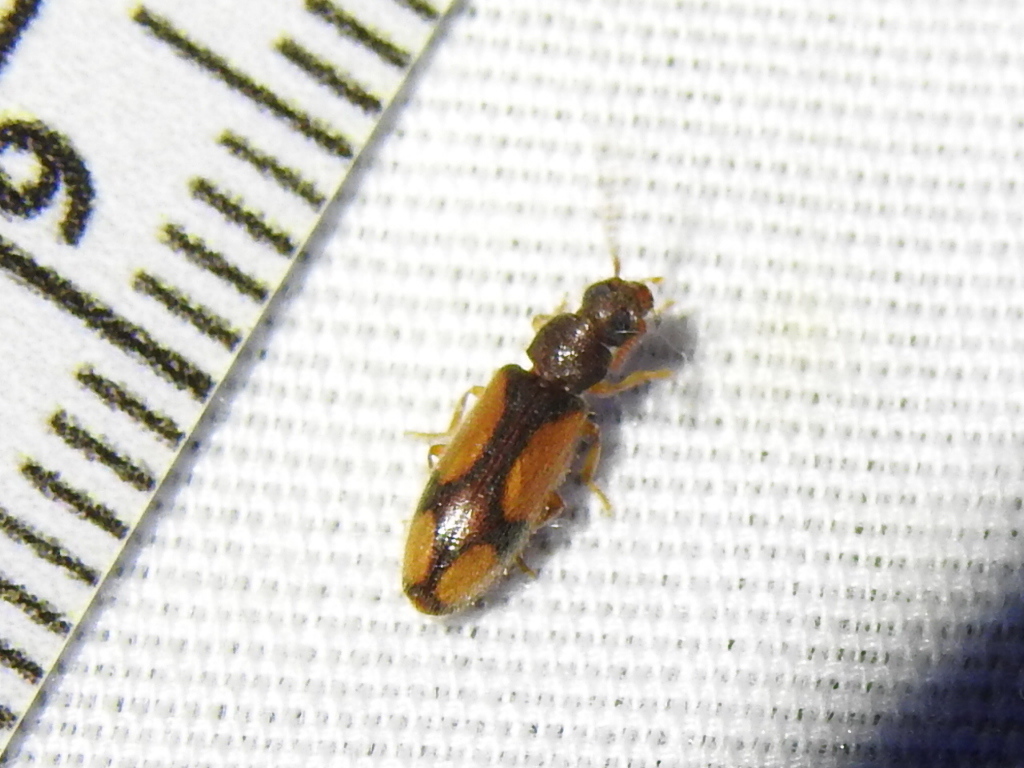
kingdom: Animalia
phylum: Arthropoda
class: Insecta
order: Coleoptera
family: Oedemeridae
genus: Polypria
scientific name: Polypria
